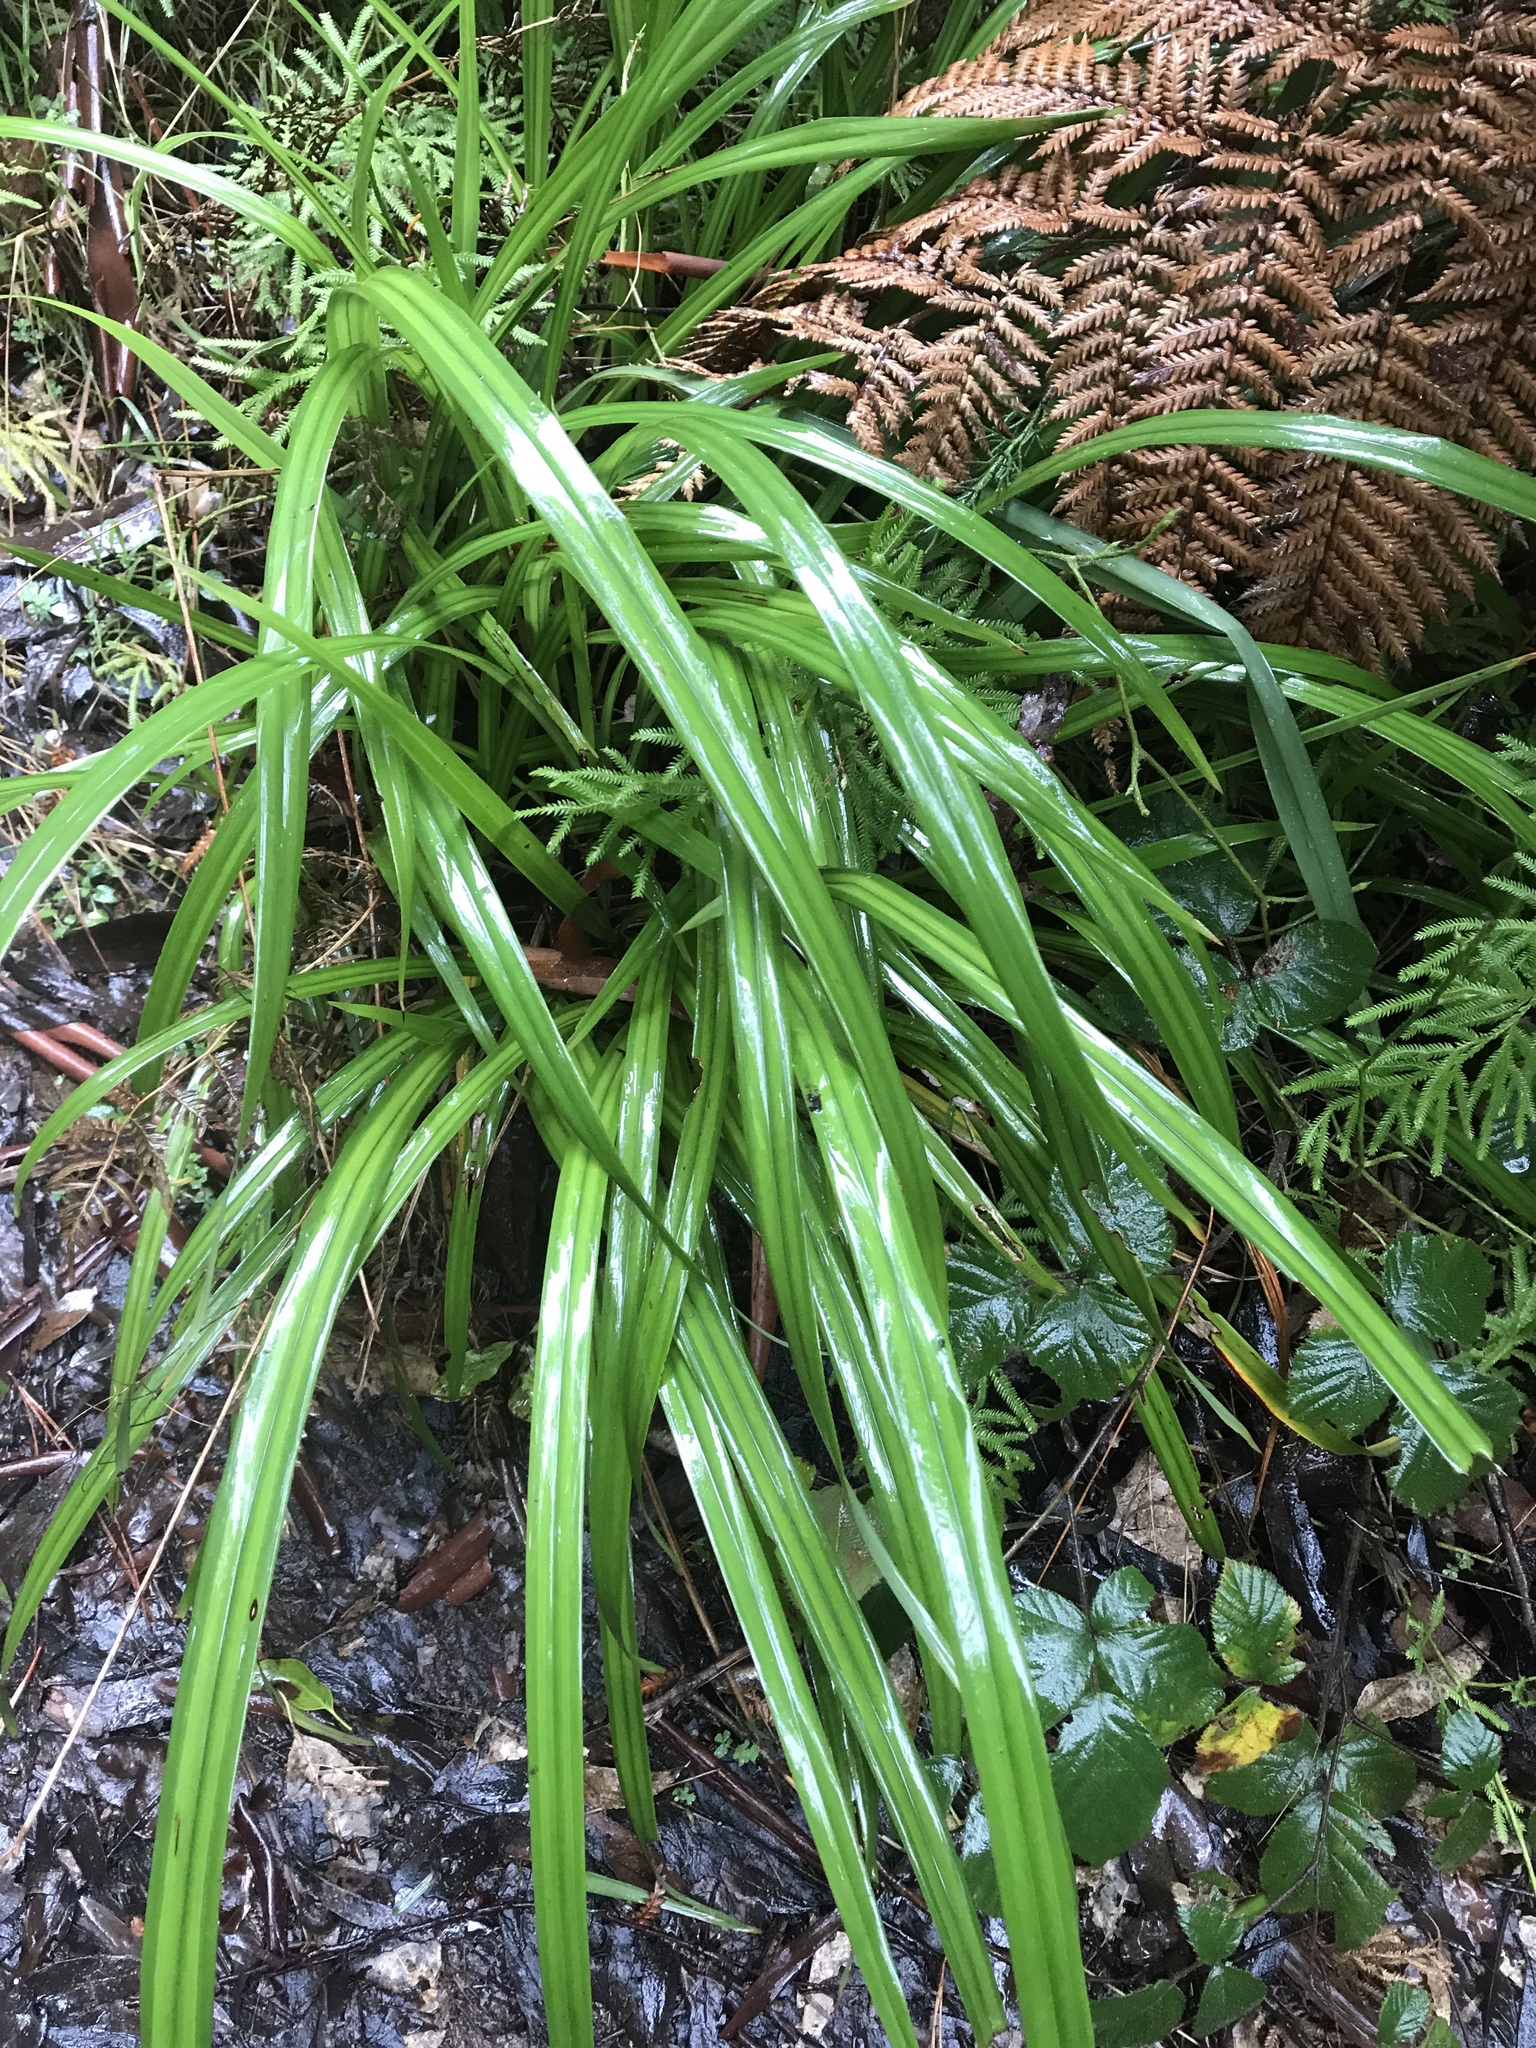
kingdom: Plantae
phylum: Tracheophyta
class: Liliopsida
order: Asparagales
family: Asphodelaceae
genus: Dianella
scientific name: Dianella nigra
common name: New zealand-blueberry
